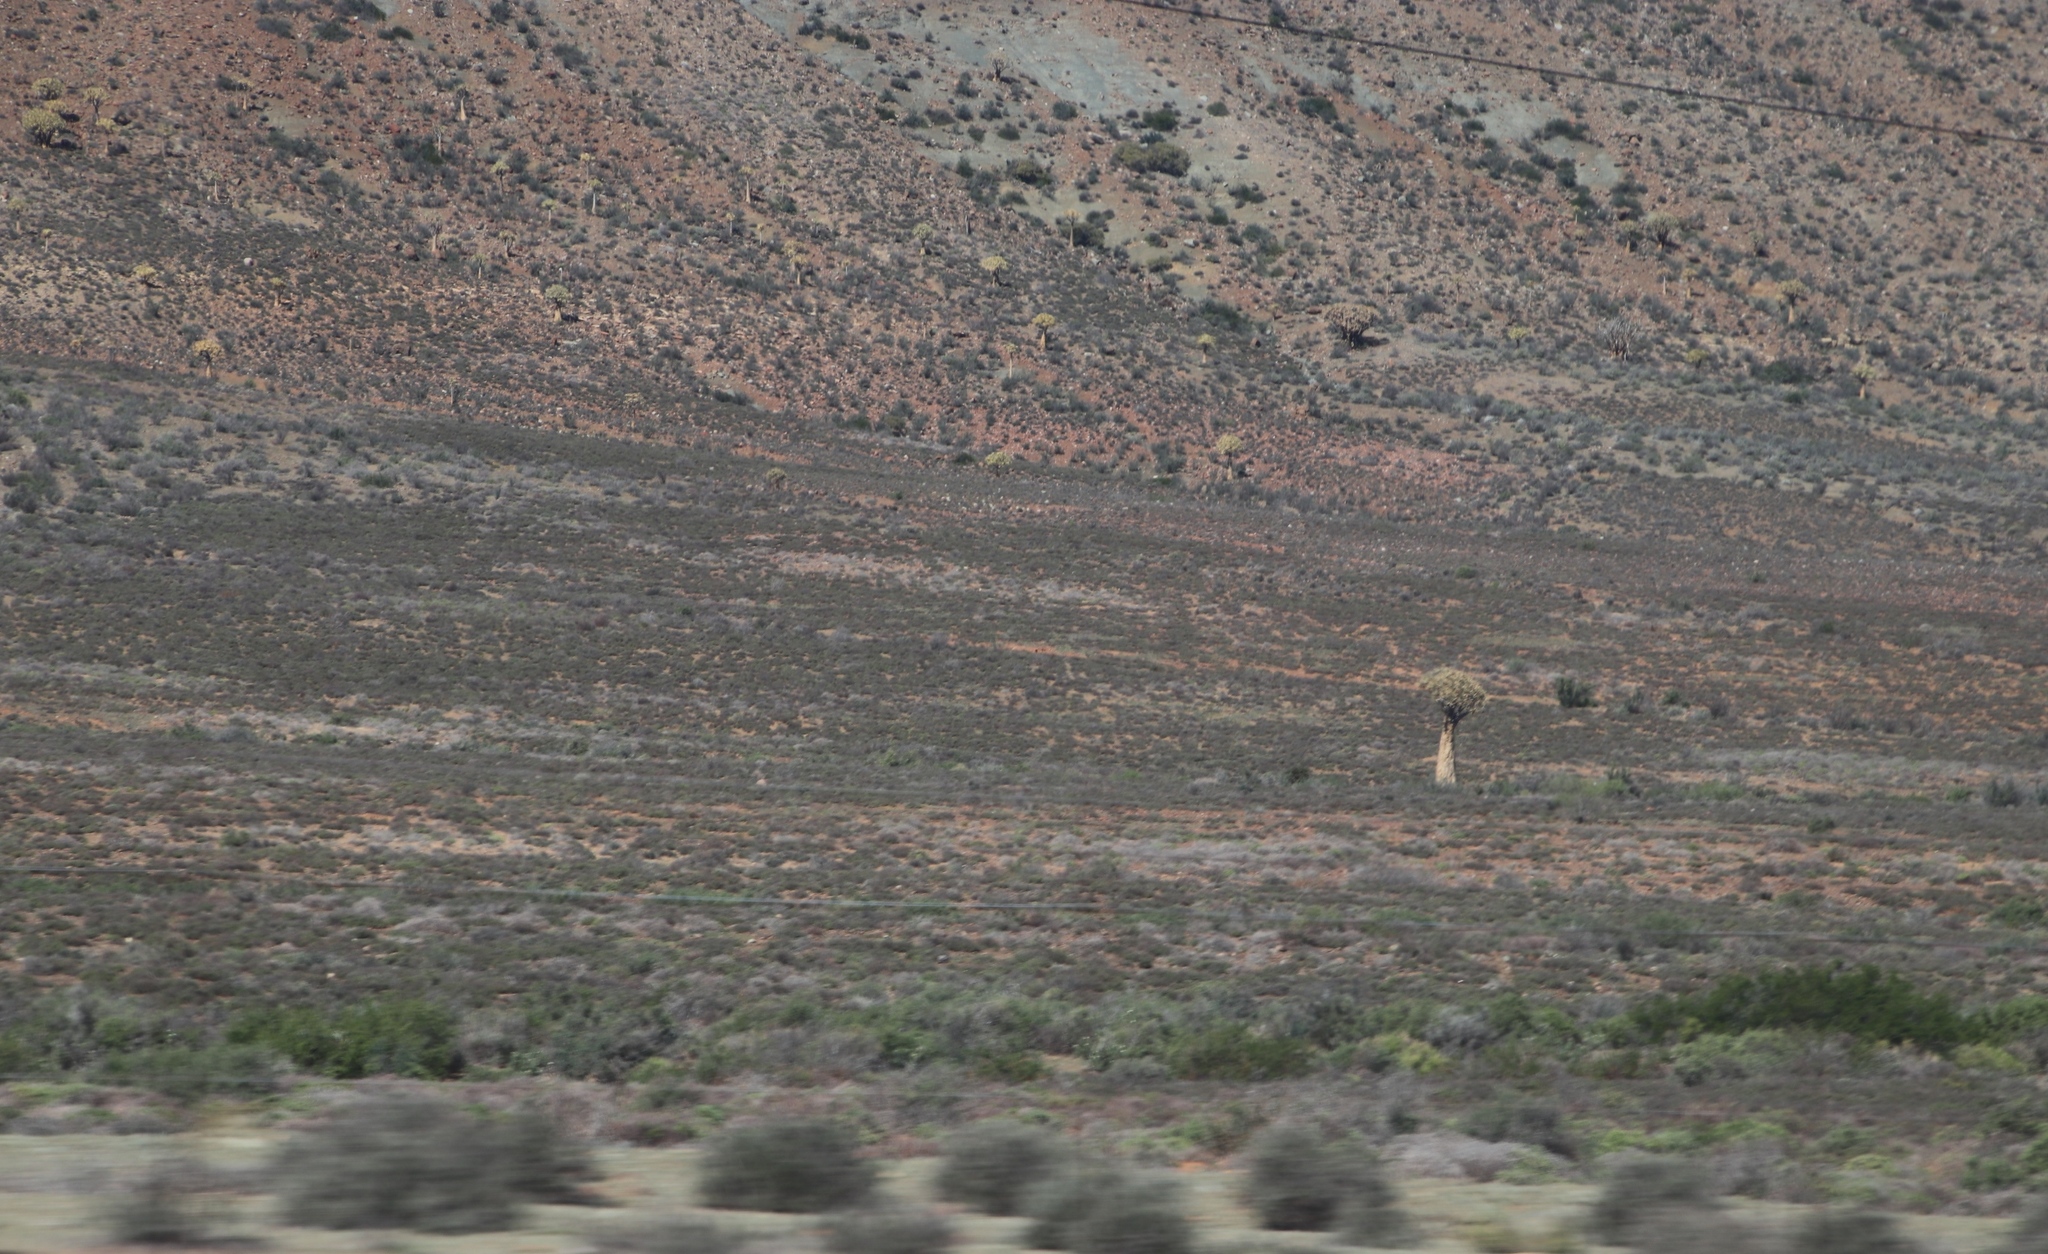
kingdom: Plantae
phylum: Tracheophyta
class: Liliopsida
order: Asparagales
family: Asphodelaceae
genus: Aloidendron
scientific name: Aloidendron dichotomum
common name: Quiver tree
